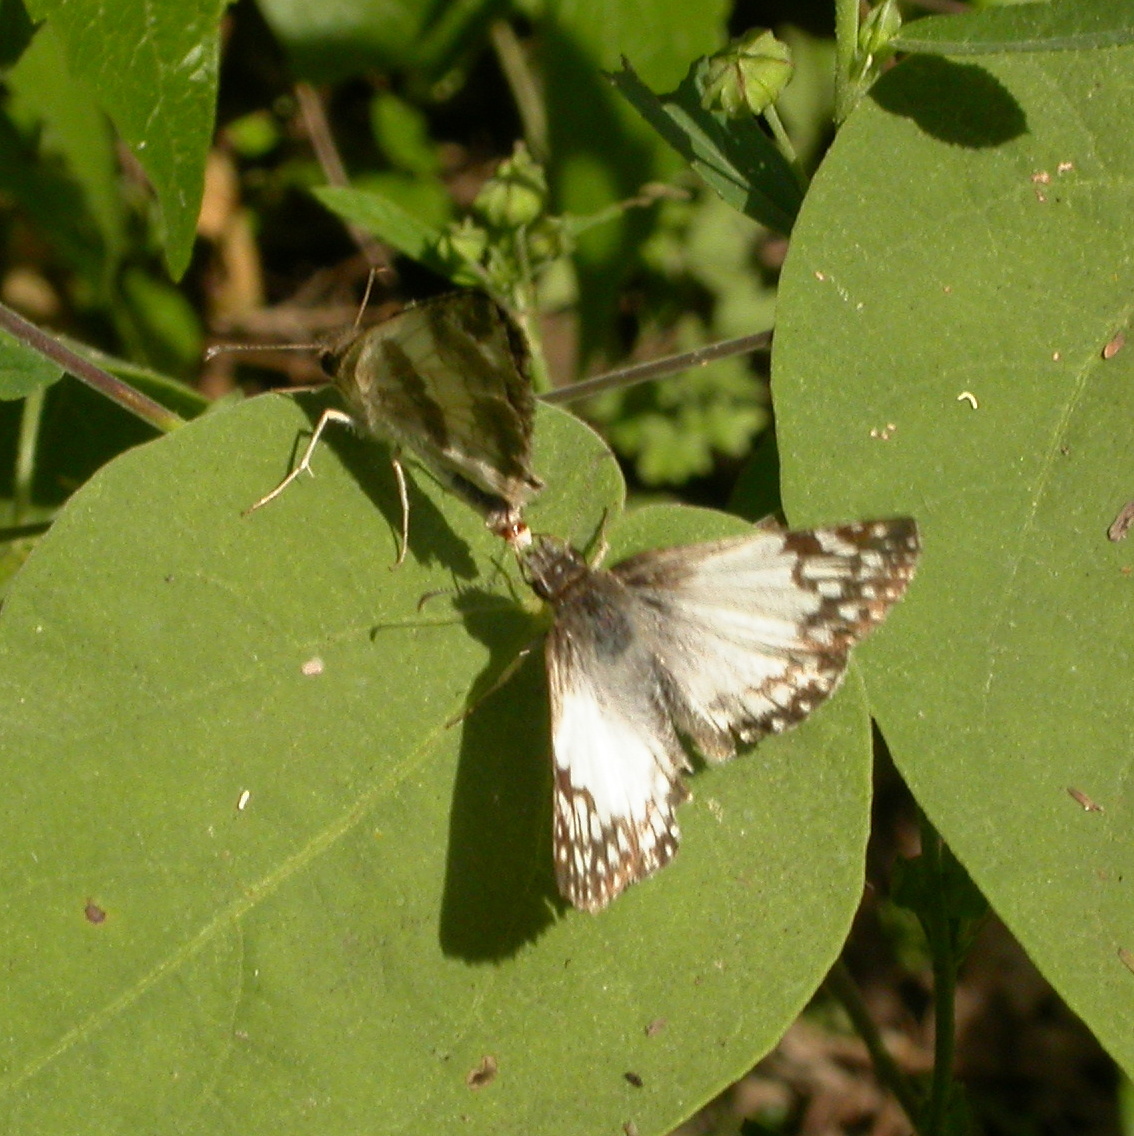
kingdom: Animalia
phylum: Arthropoda
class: Insecta
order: Lepidoptera
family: Hesperiidae
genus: Heliopetes
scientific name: Heliopetes sublinea
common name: East-mexican white-skipper
